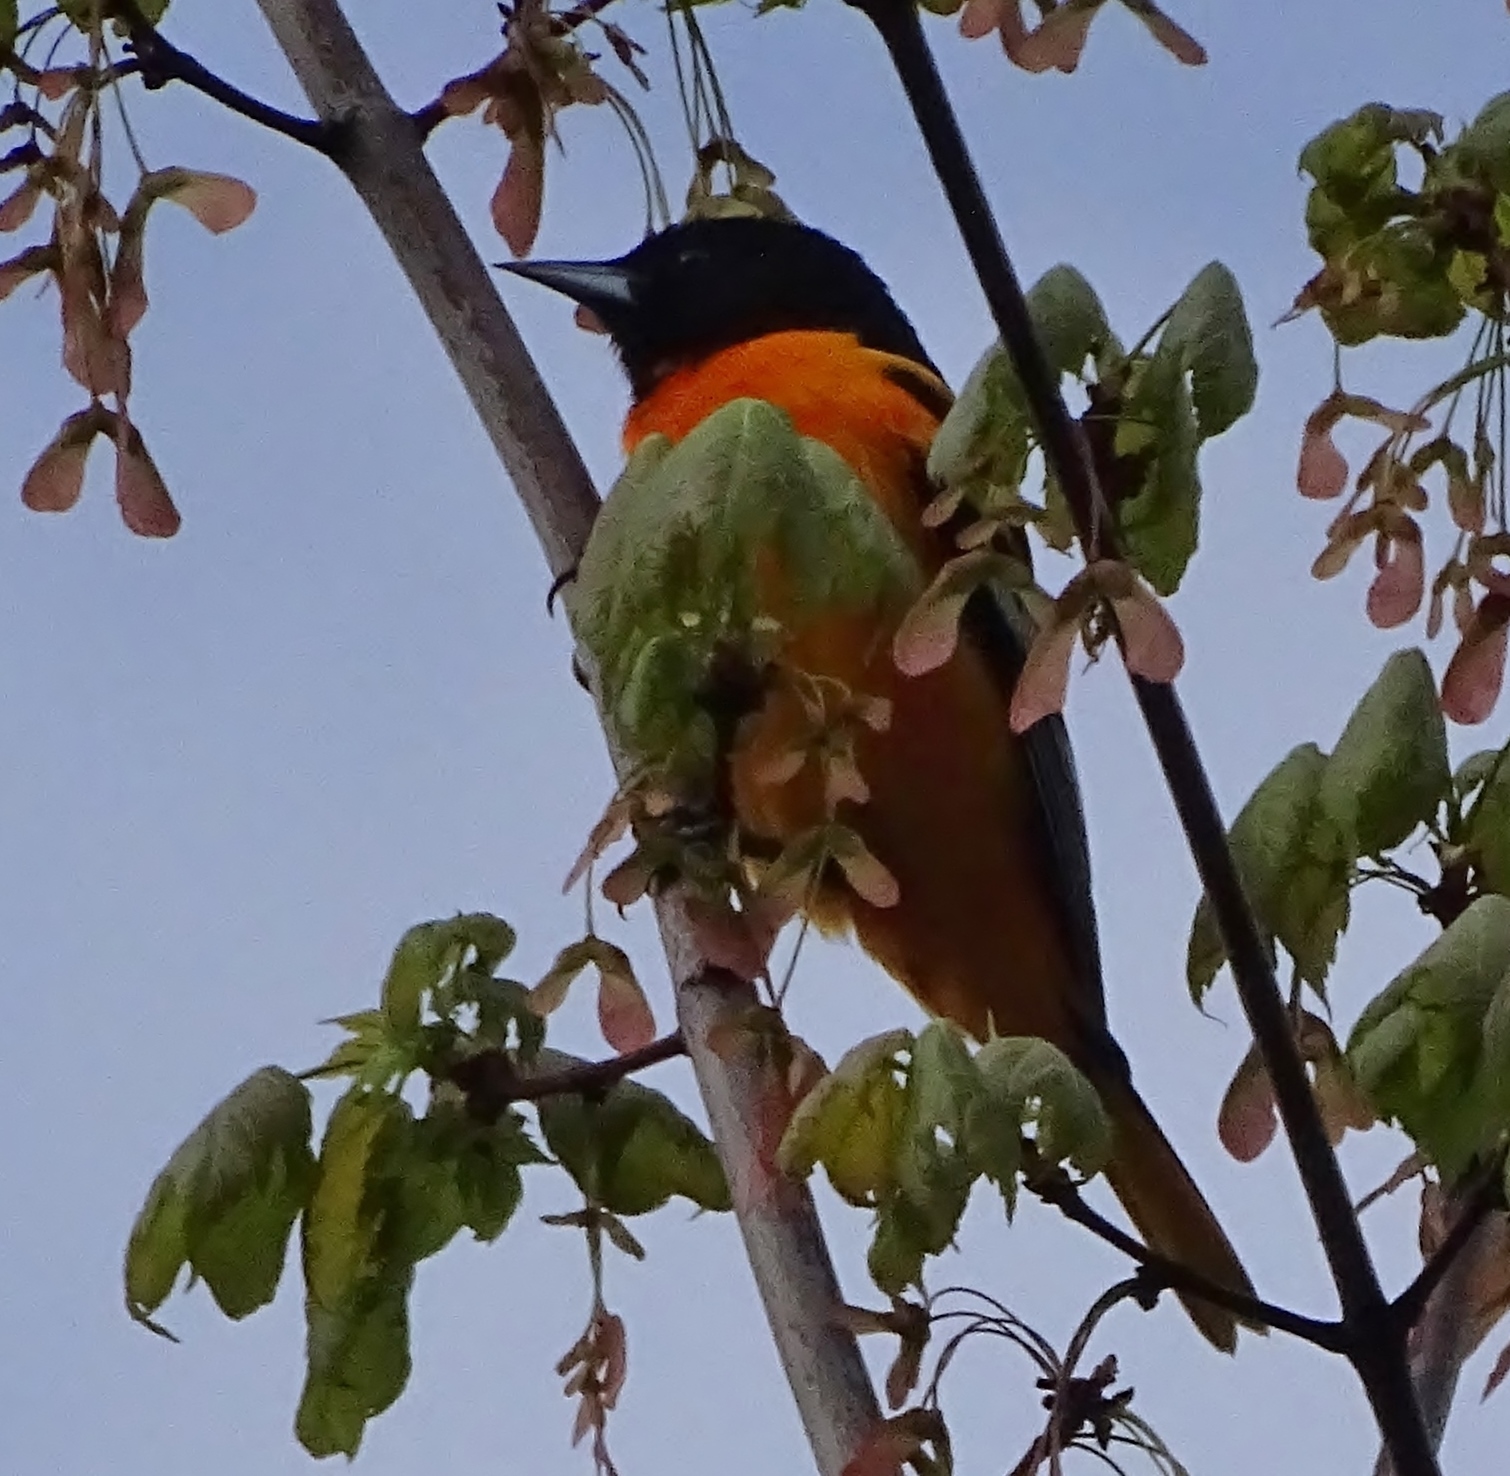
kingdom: Animalia
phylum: Chordata
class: Aves
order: Passeriformes
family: Icteridae
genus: Icterus
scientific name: Icterus galbula
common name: Baltimore oriole
